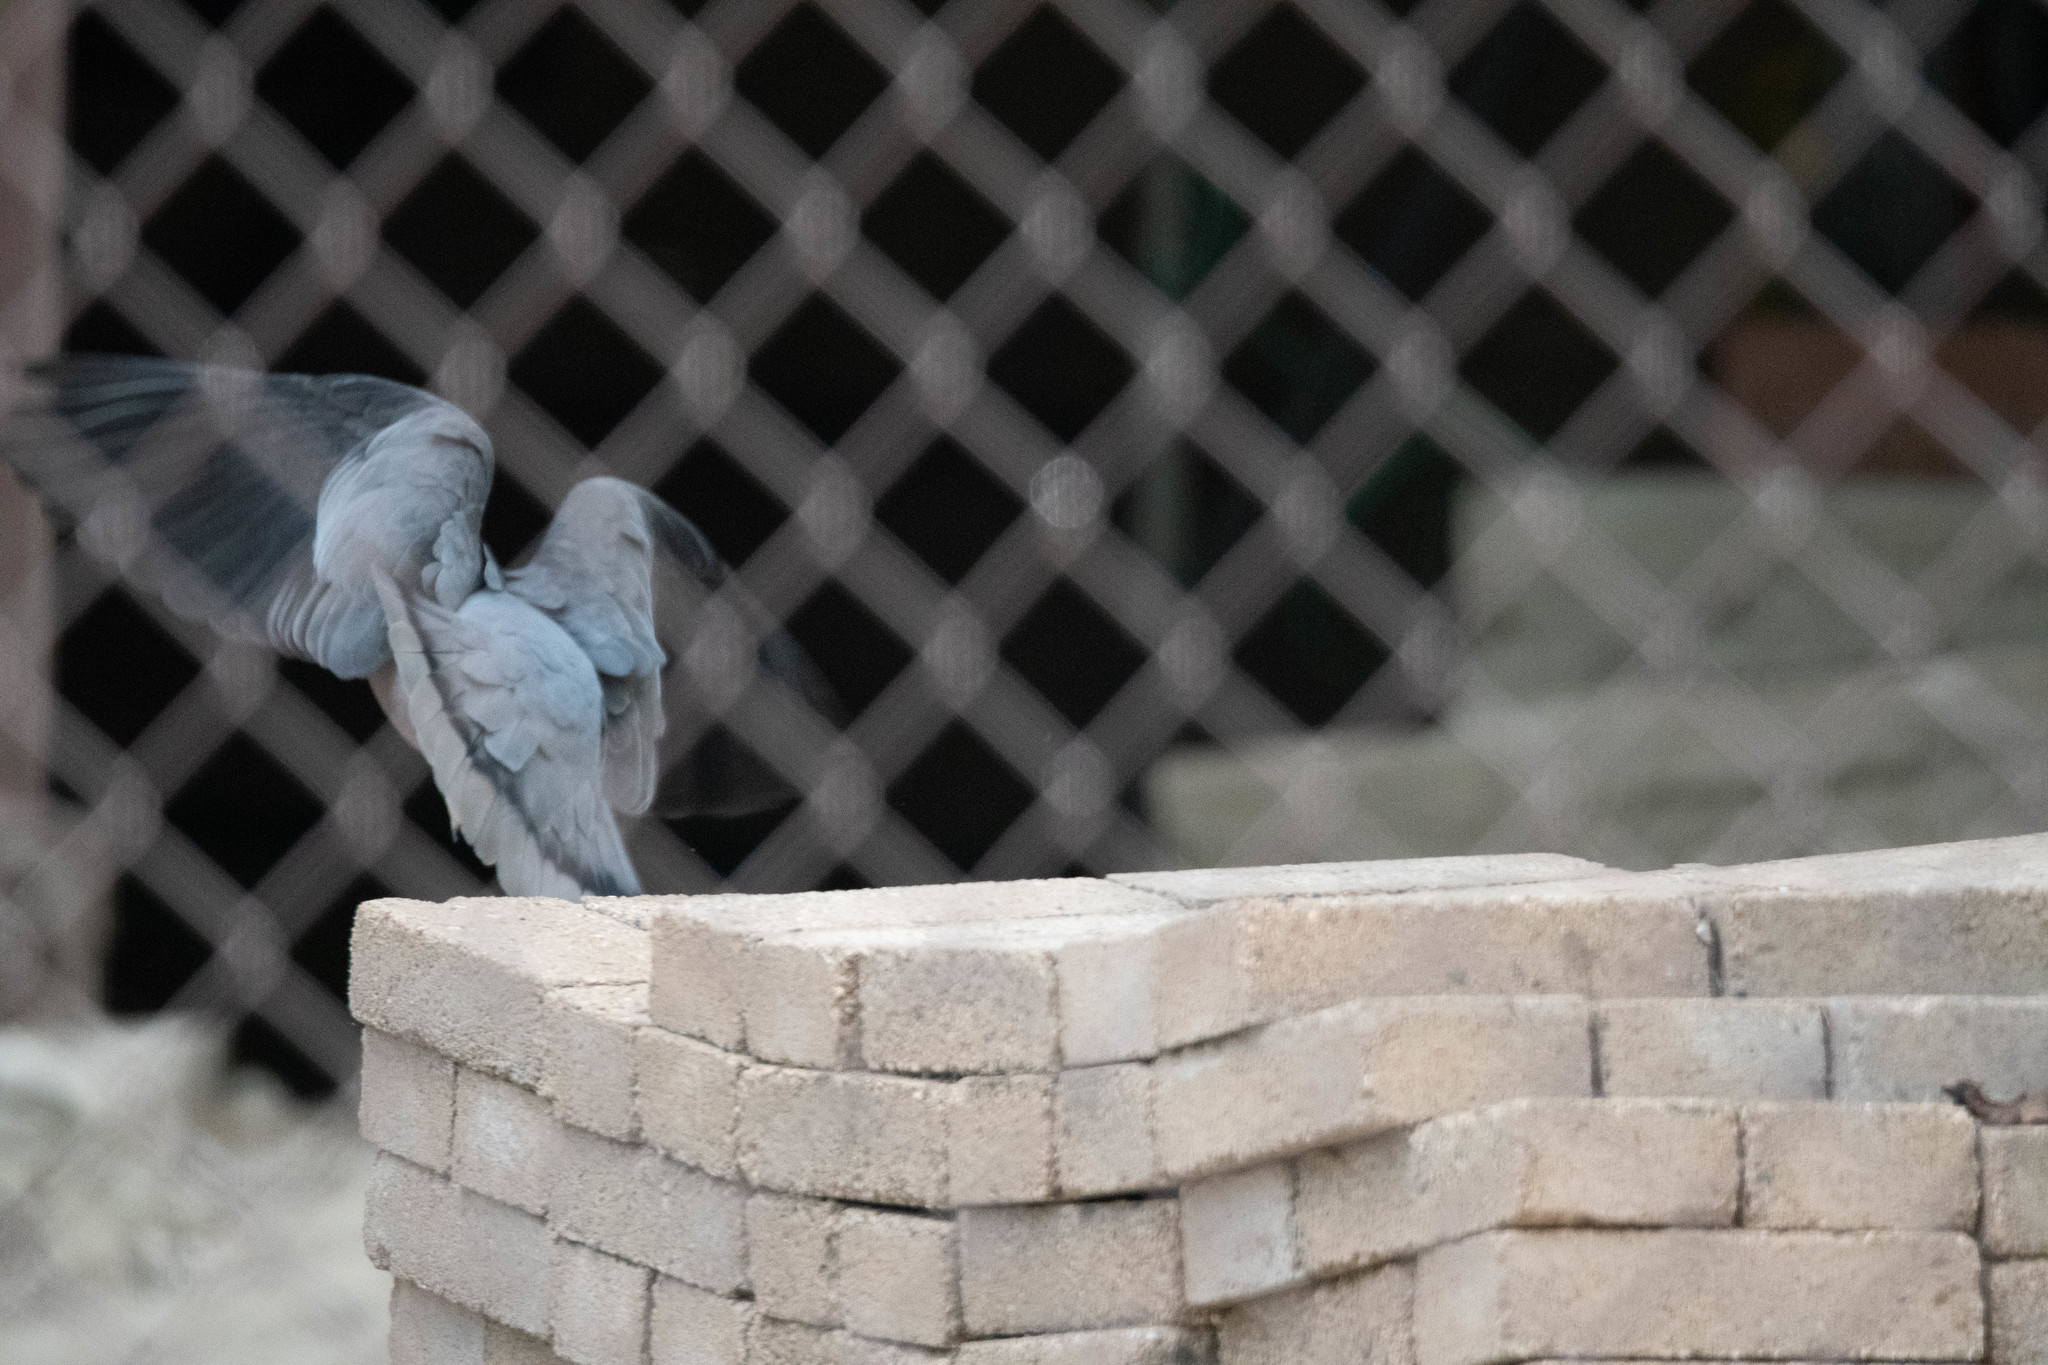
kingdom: Animalia
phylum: Chordata
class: Aves
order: Columbiformes
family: Columbidae
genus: Patagioenas
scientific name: Patagioenas fasciata
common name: Band-tailed pigeon
